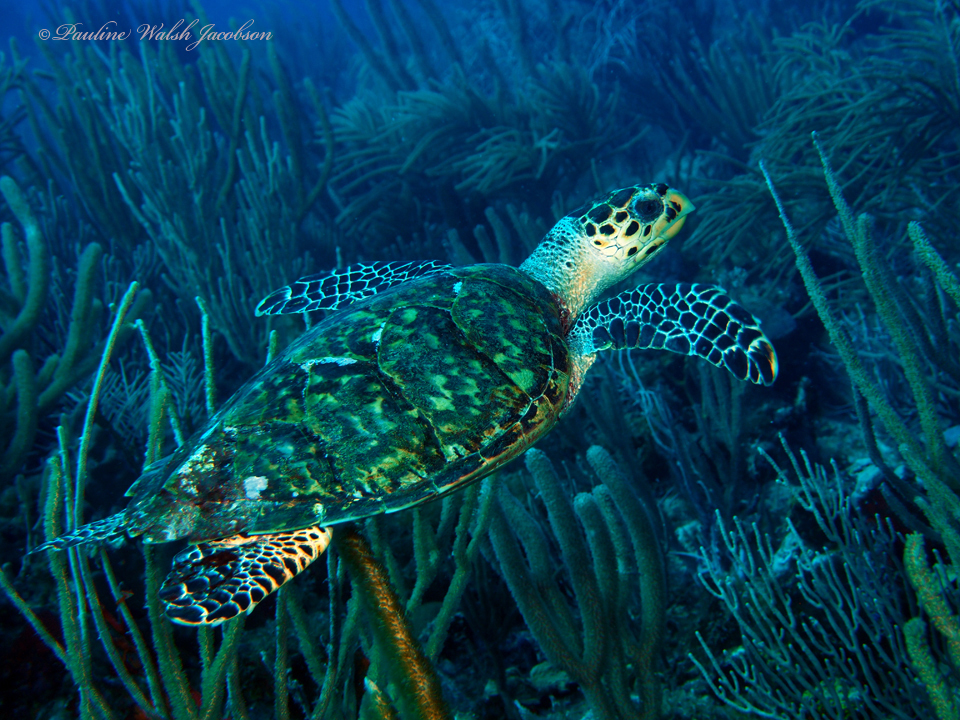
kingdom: Animalia
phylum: Chordata
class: Testudines
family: Cheloniidae
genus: Eretmochelys
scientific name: Eretmochelys imbricata
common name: Hawksbill turtle
